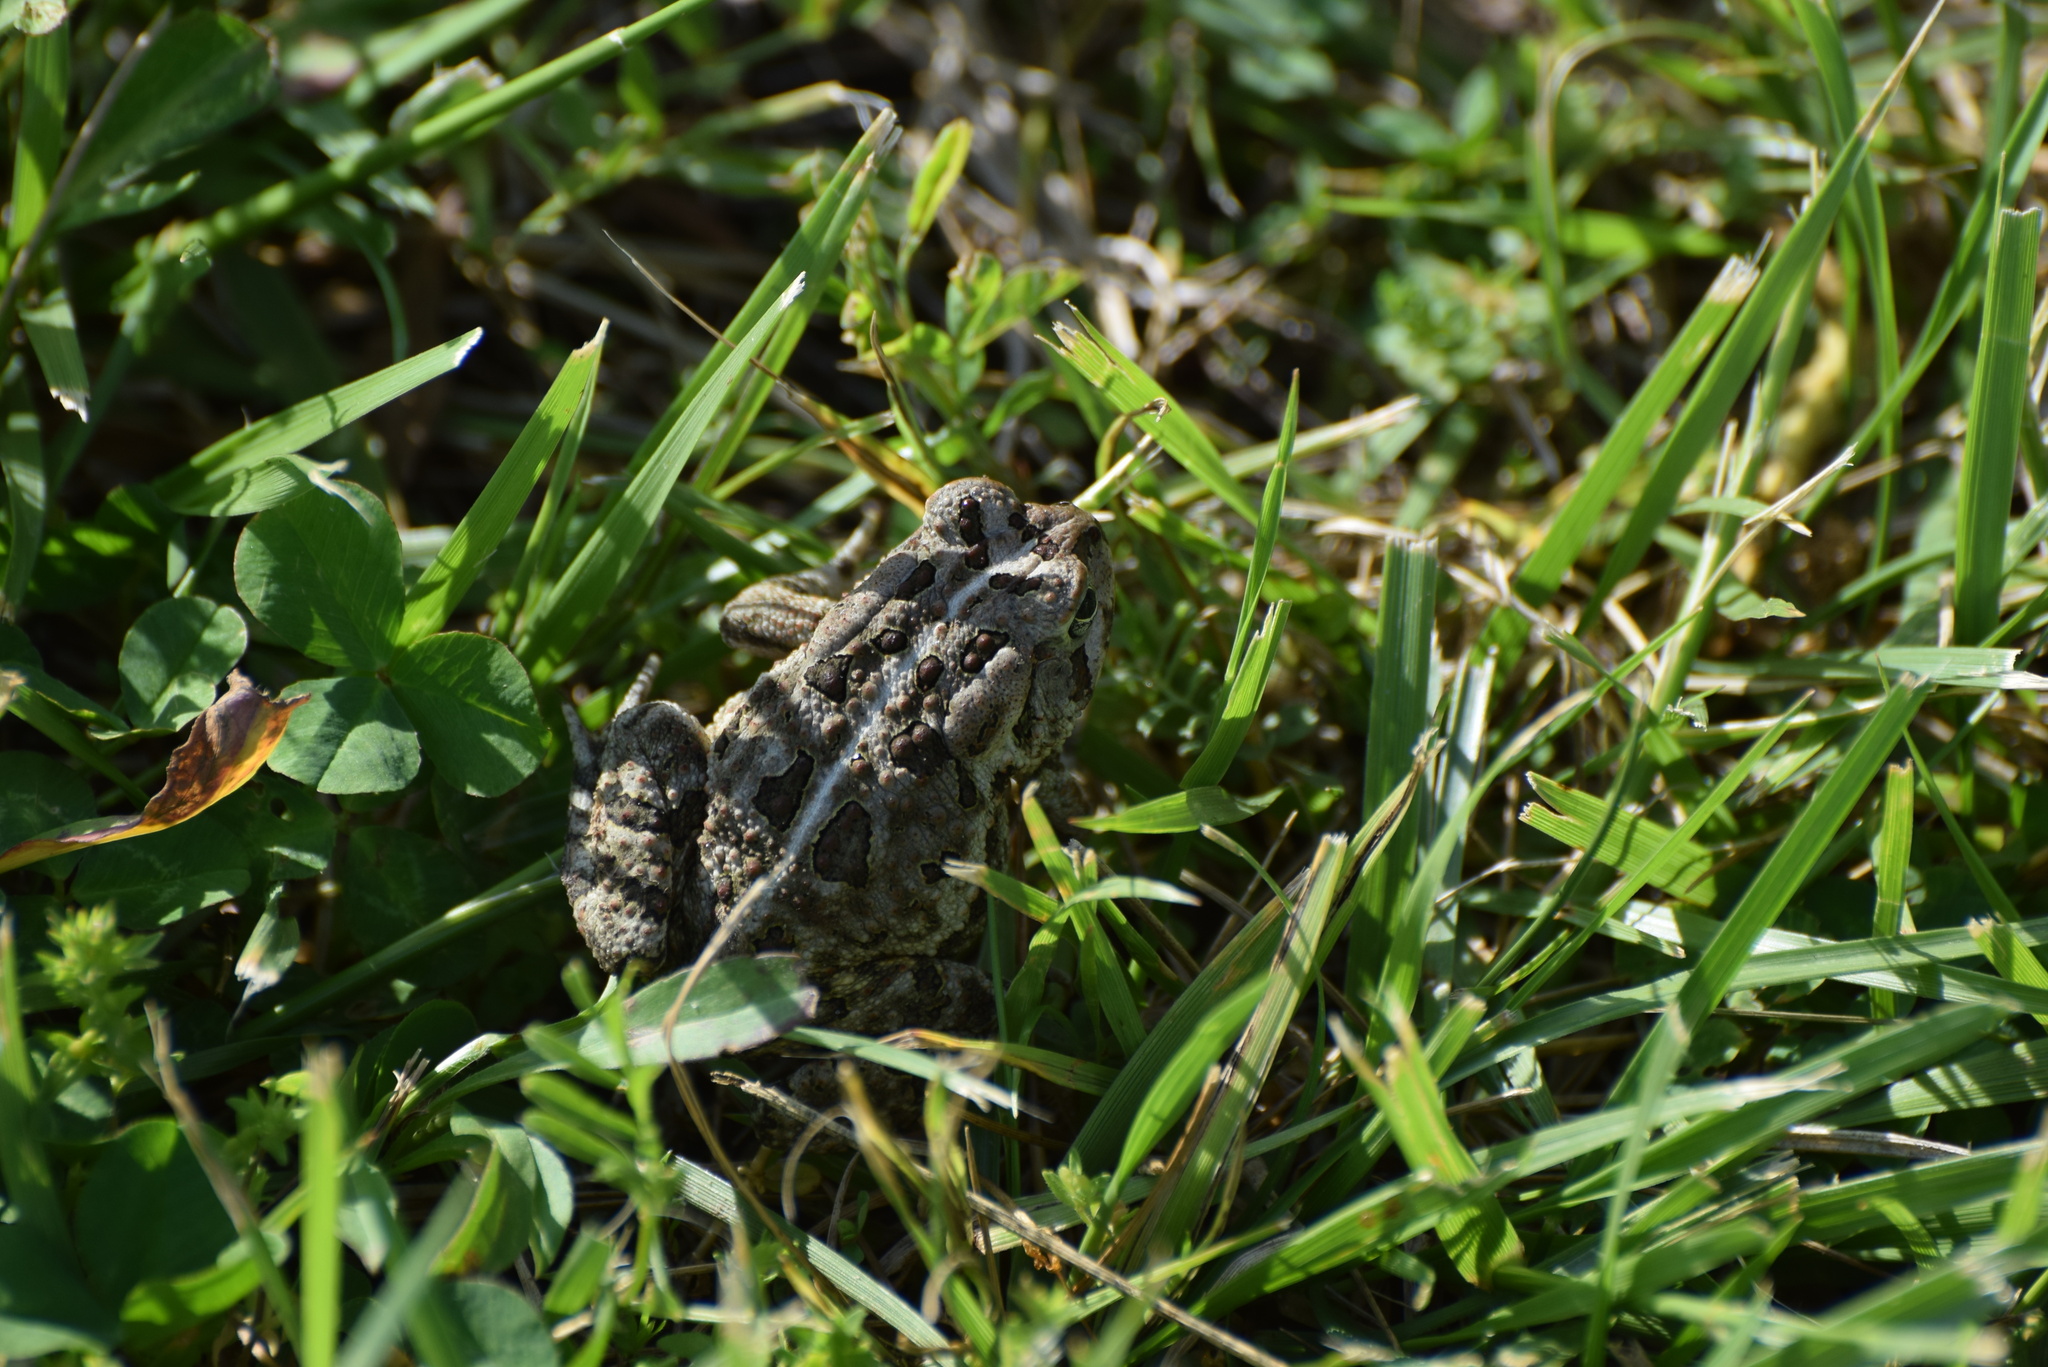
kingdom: Animalia
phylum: Chordata
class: Amphibia
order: Anura
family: Bufonidae
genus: Anaxyrus
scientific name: Anaxyrus fowleri
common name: Fowler's toad
